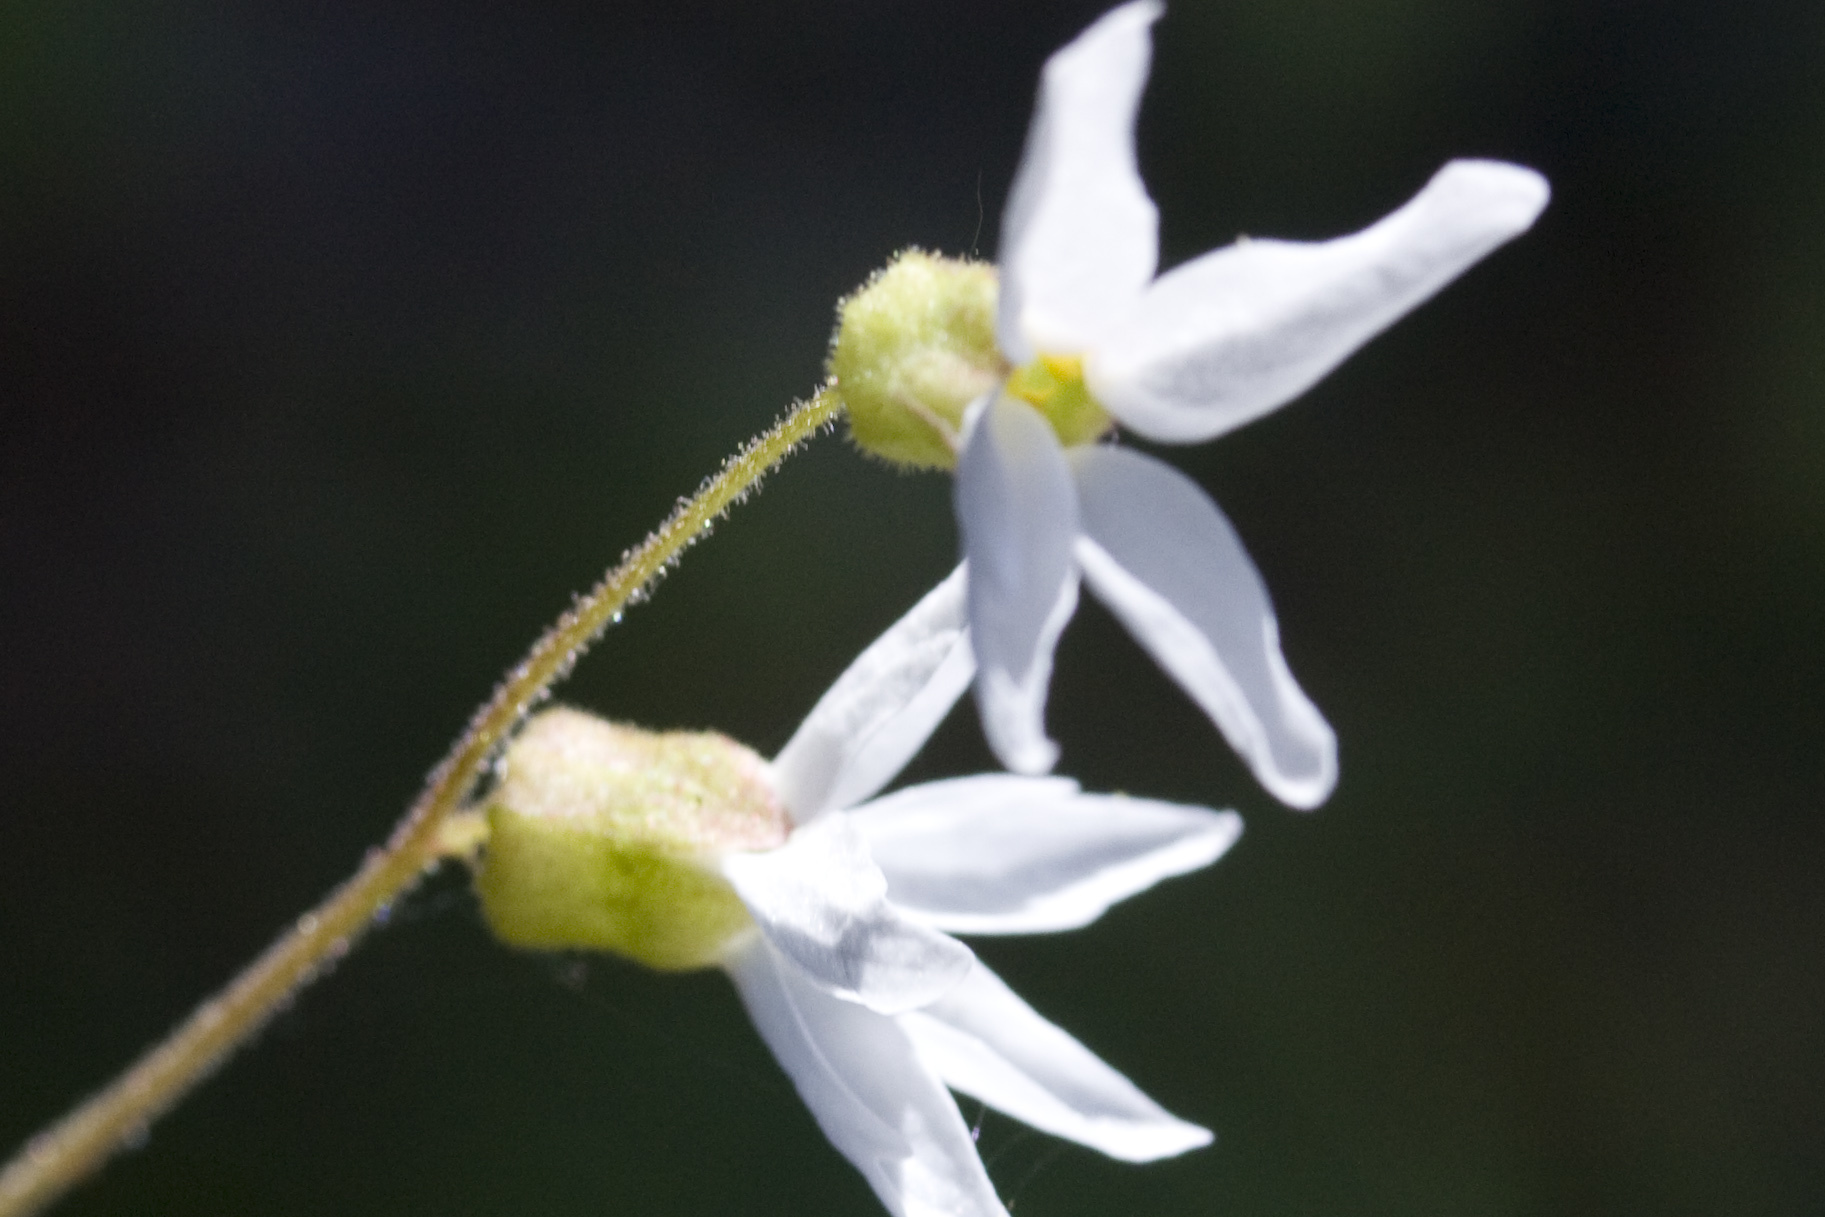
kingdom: Plantae
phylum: Tracheophyta
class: Magnoliopsida
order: Saxifragales
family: Saxifragaceae
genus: Lithophragma
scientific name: Lithophragma heterophyllum
